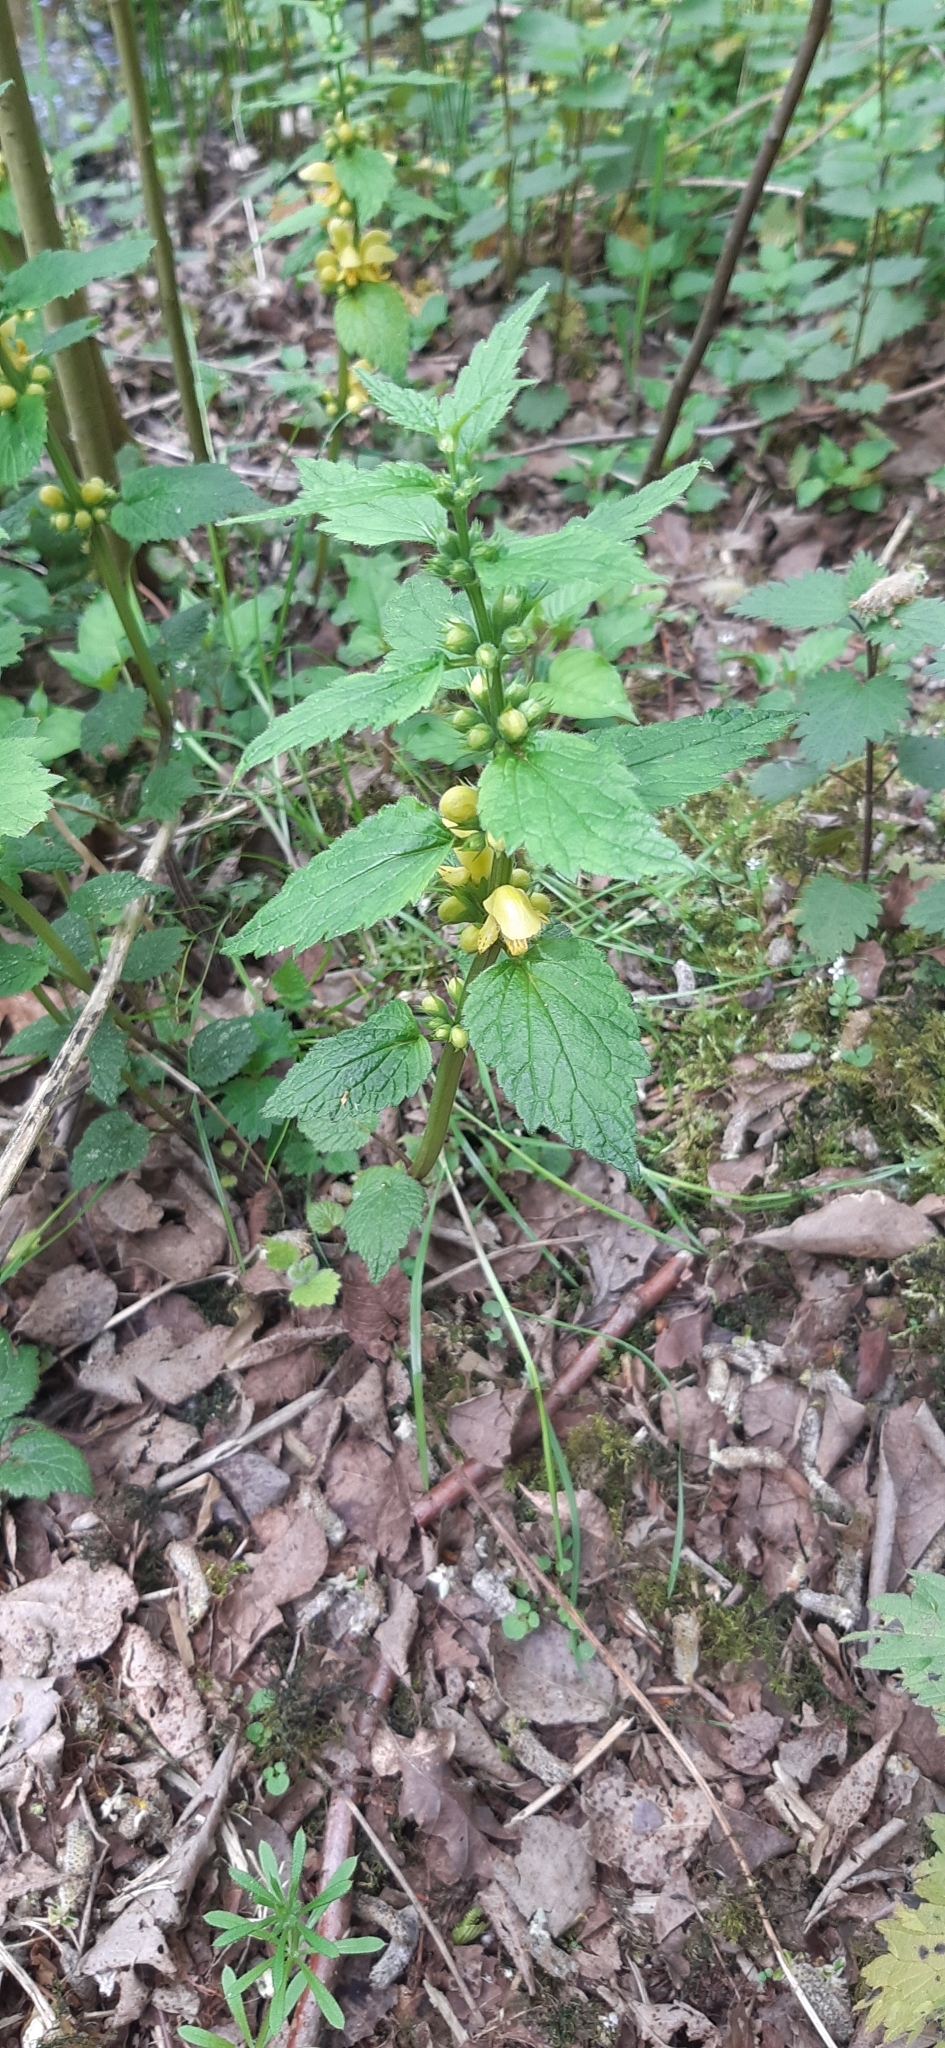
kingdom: Plantae
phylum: Tracheophyta
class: Magnoliopsida
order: Lamiales
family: Lamiaceae
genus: Lamium
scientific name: Lamium galeobdolon
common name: Yellow archangel
